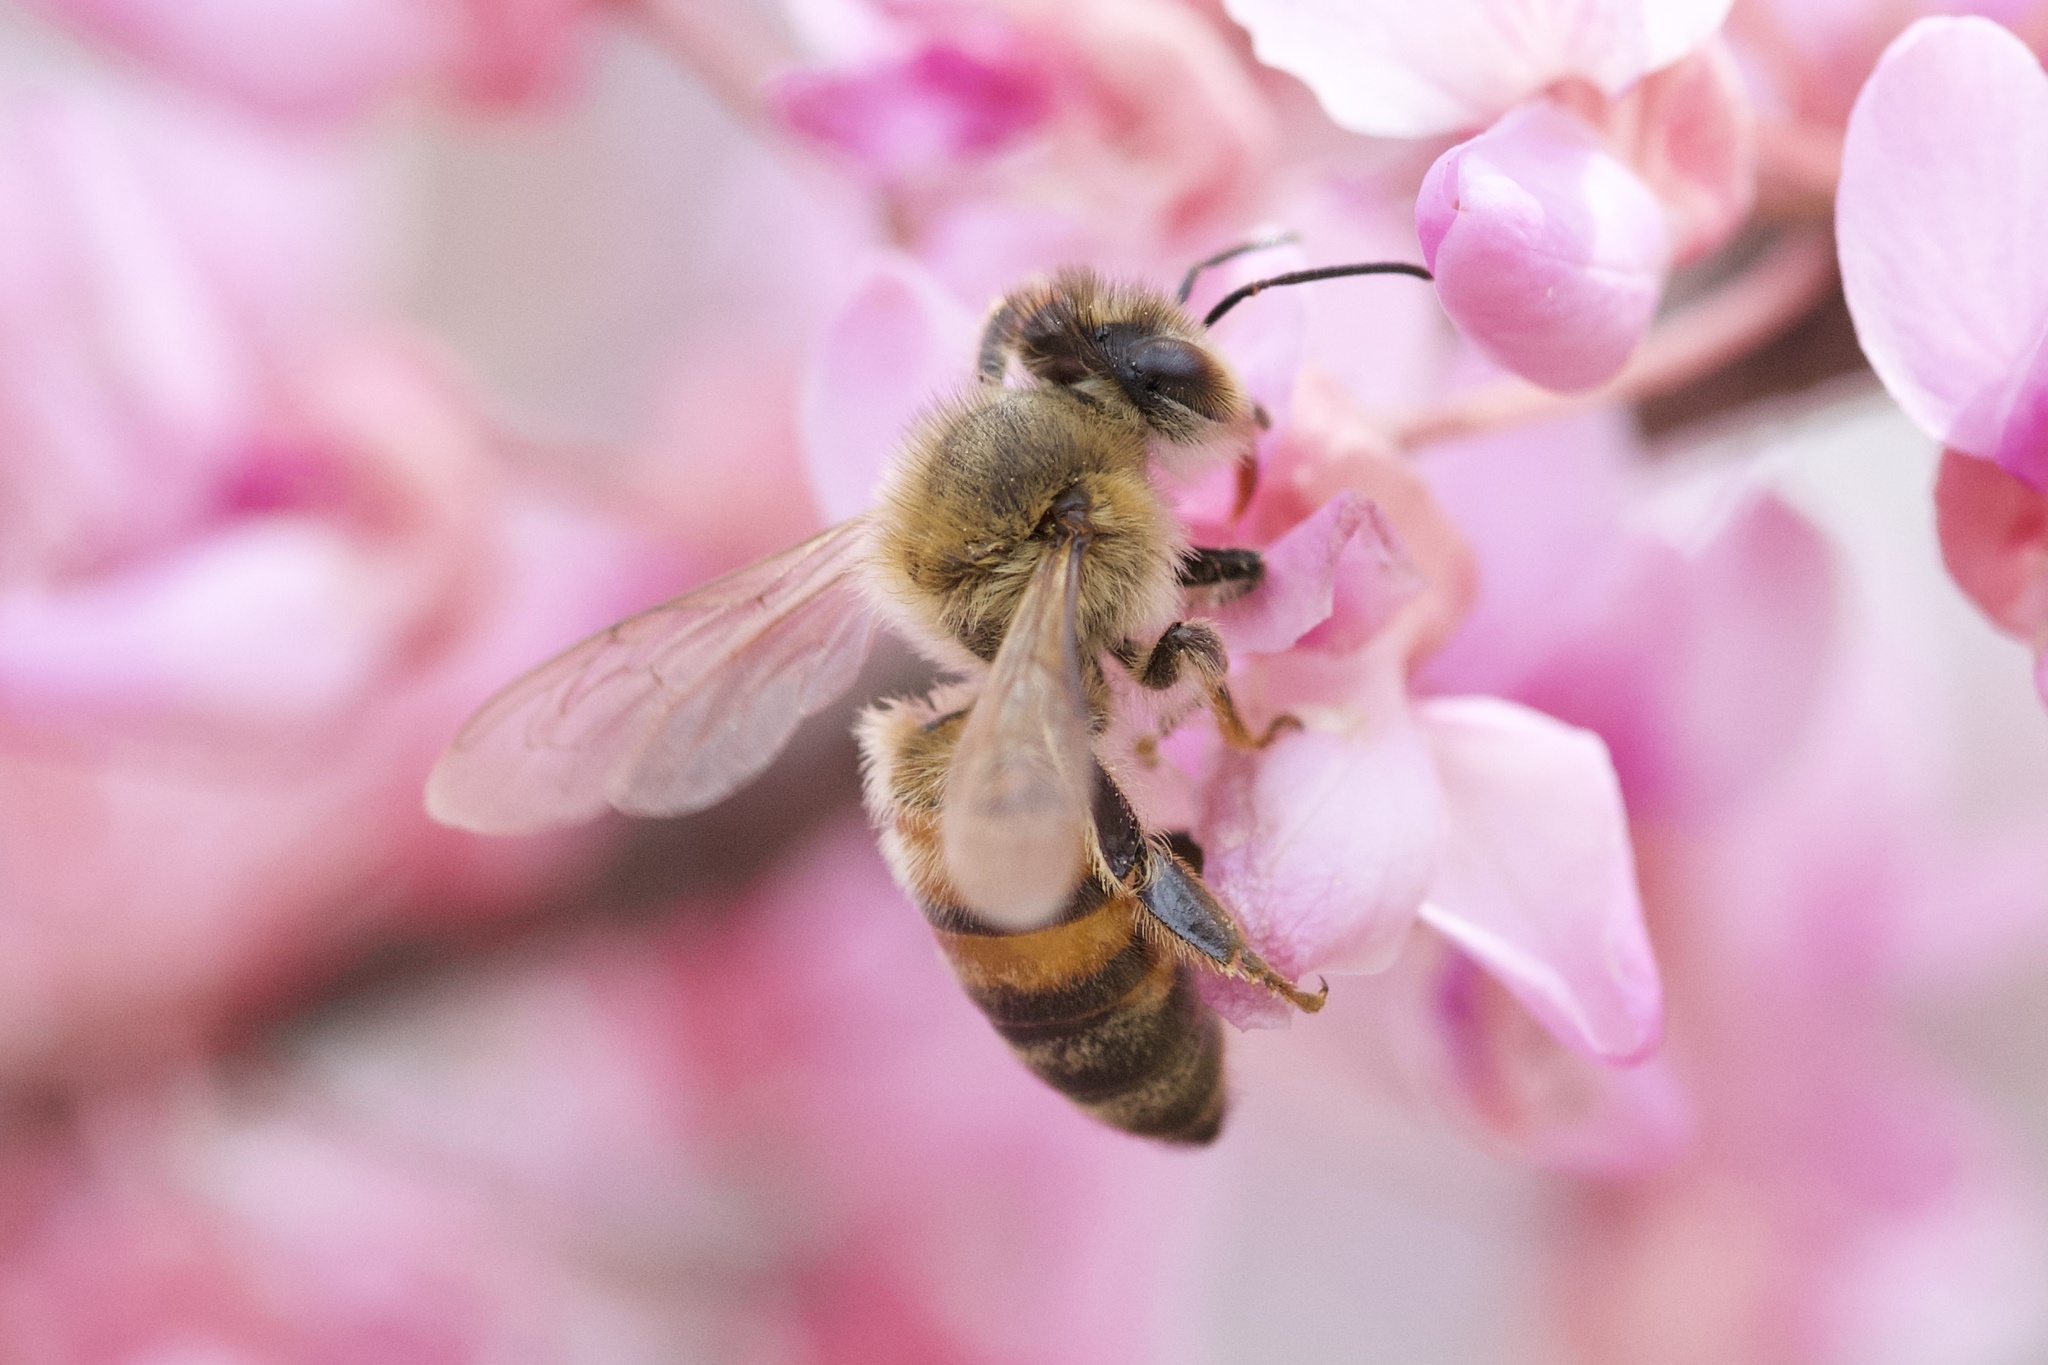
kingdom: Animalia
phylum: Arthropoda
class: Insecta
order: Hymenoptera
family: Apidae
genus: Apis
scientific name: Apis mellifera
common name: Honey bee
